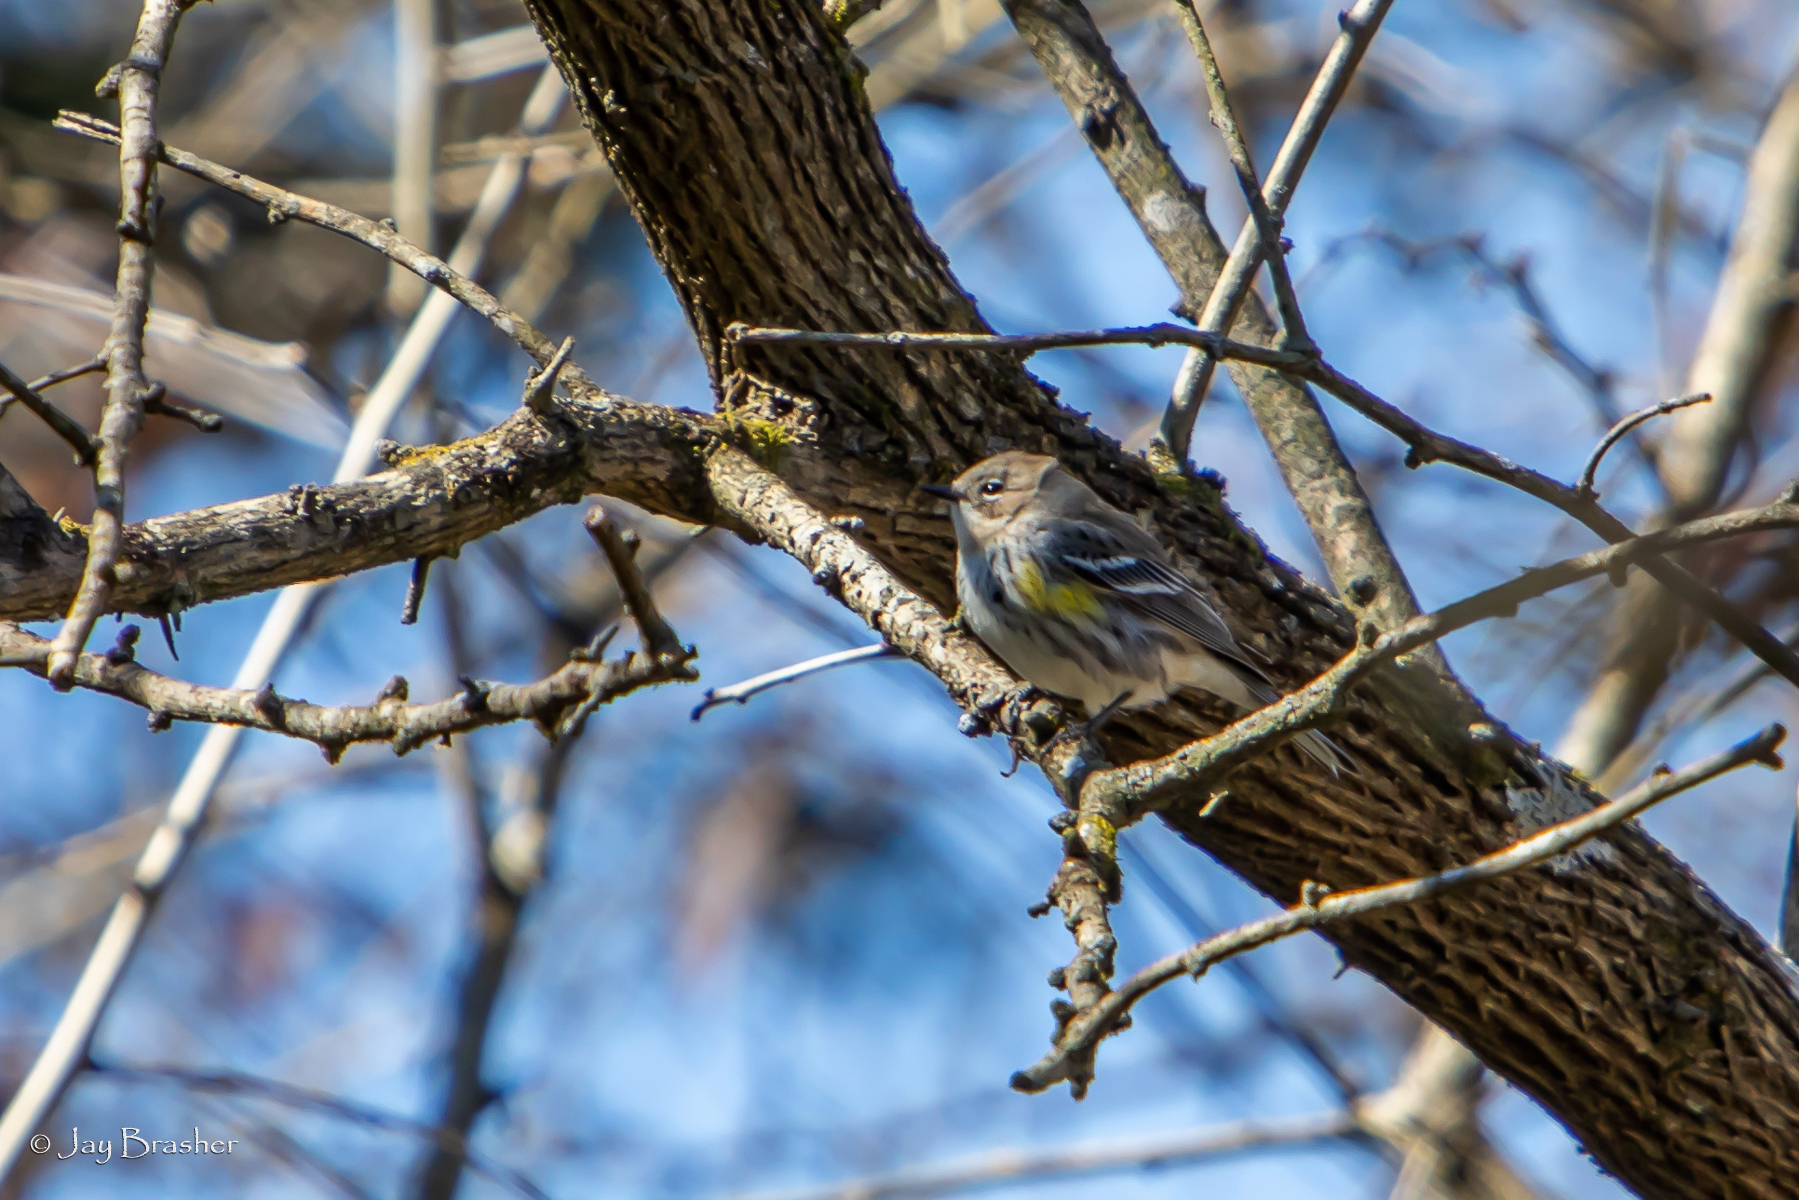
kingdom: Animalia
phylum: Chordata
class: Aves
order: Passeriformes
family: Parulidae
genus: Setophaga
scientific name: Setophaga coronata
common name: Myrtle warbler
